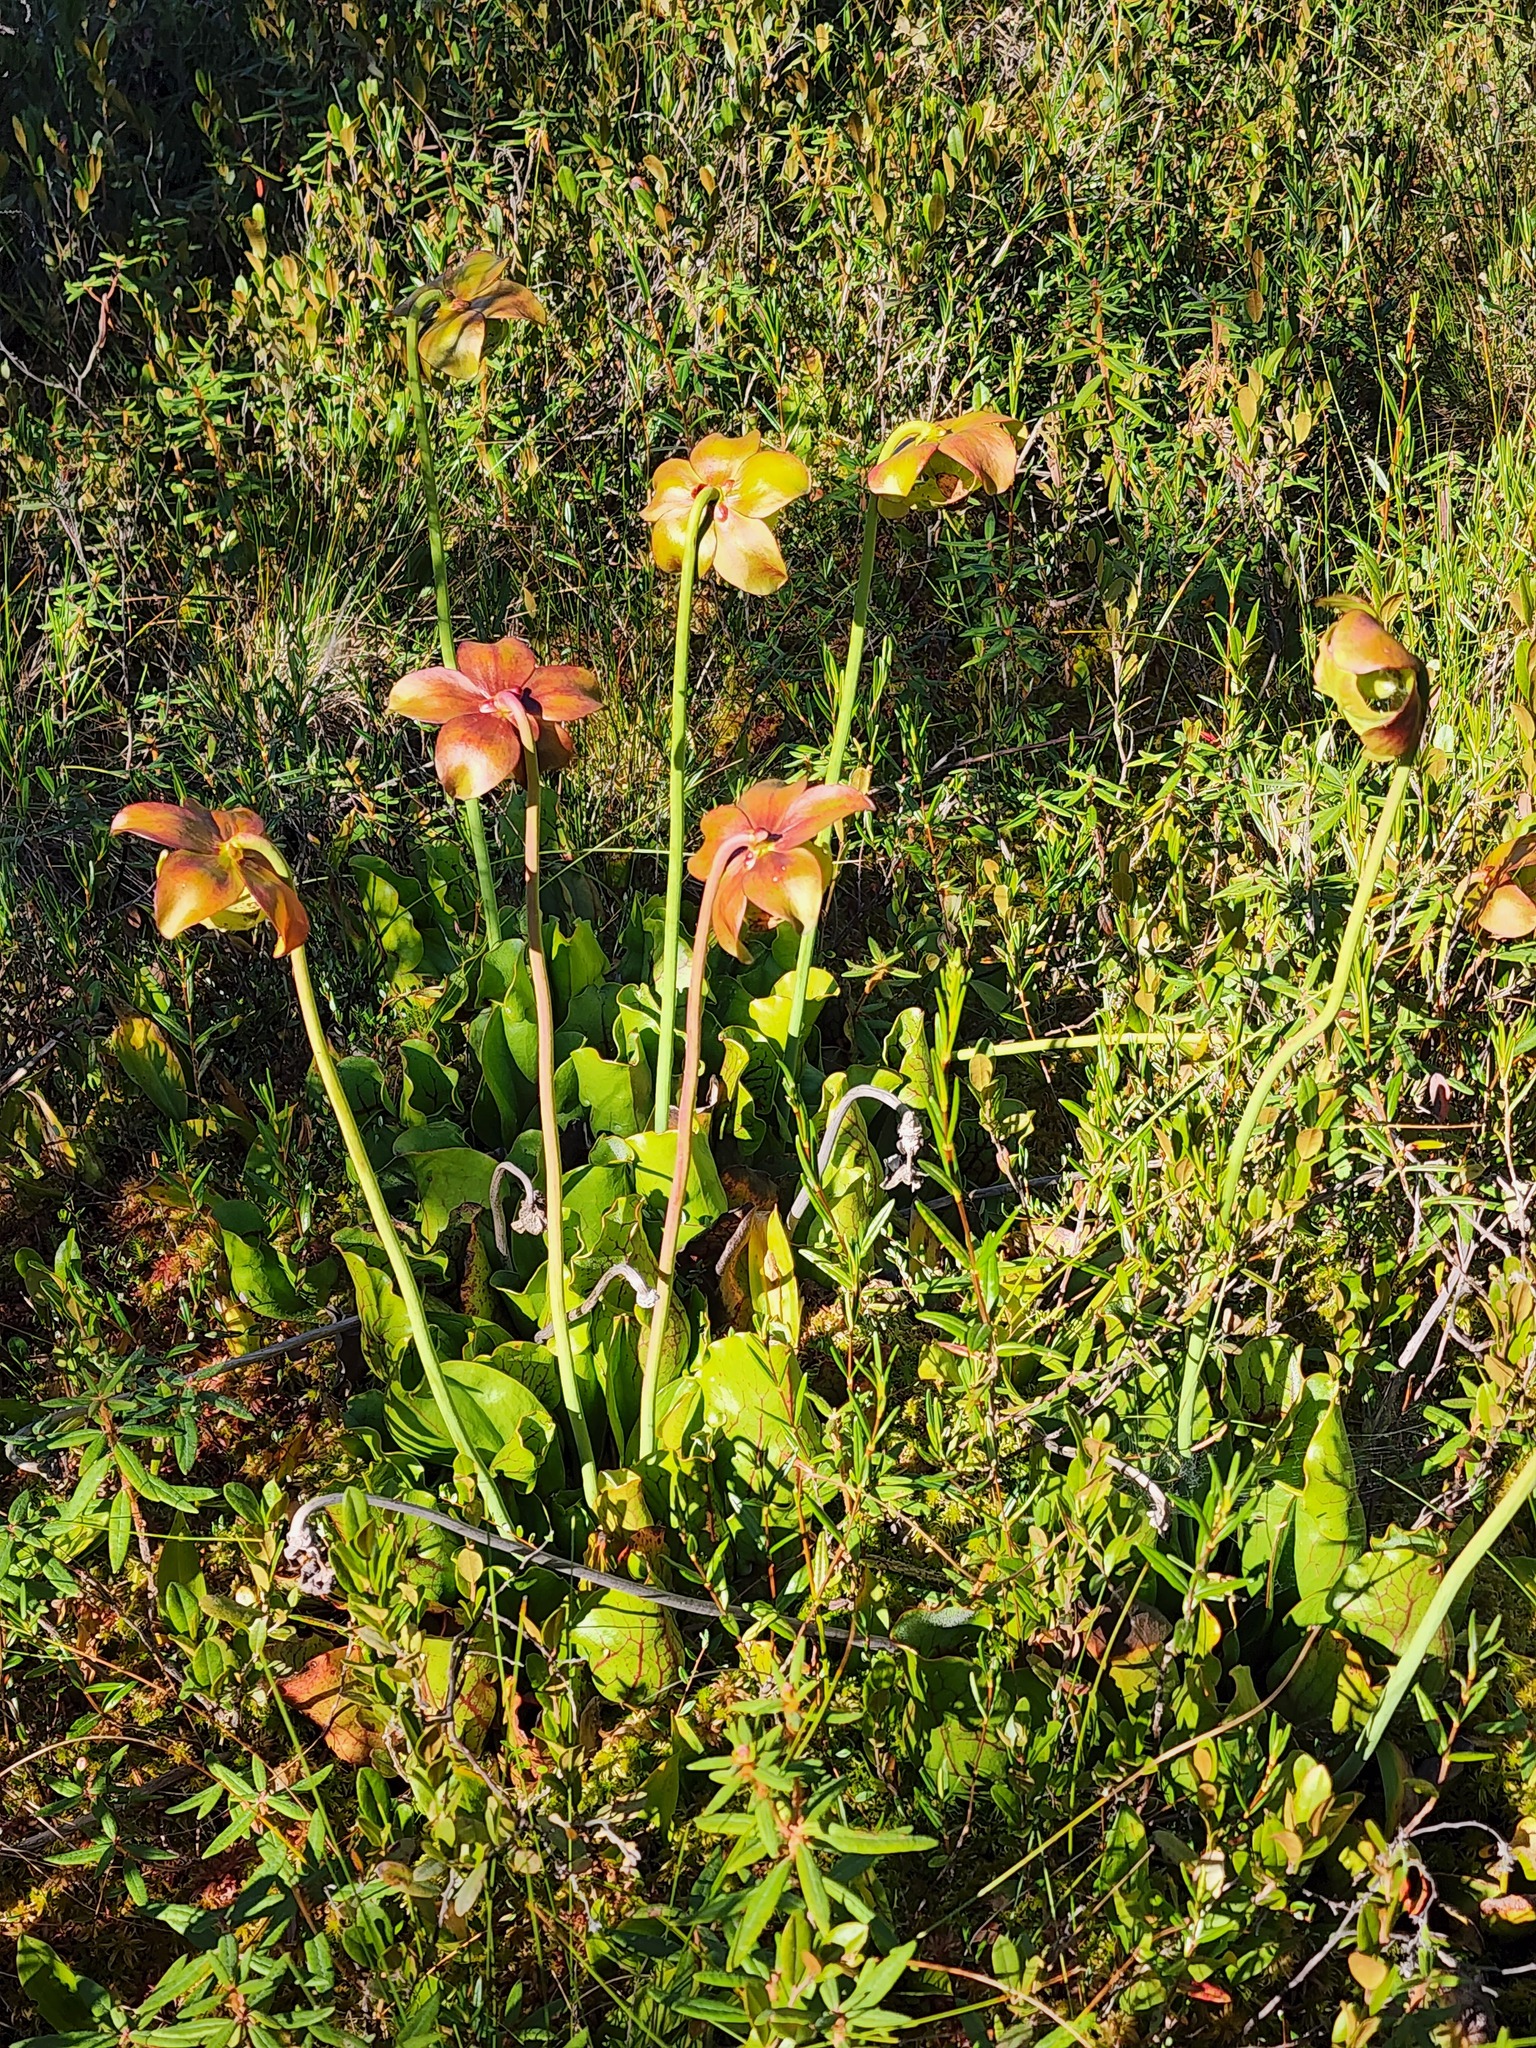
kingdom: Plantae
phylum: Tracheophyta
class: Magnoliopsida
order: Ericales
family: Sarraceniaceae
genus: Sarracenia
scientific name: Sarracenia purpurea
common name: Pitcherplant
